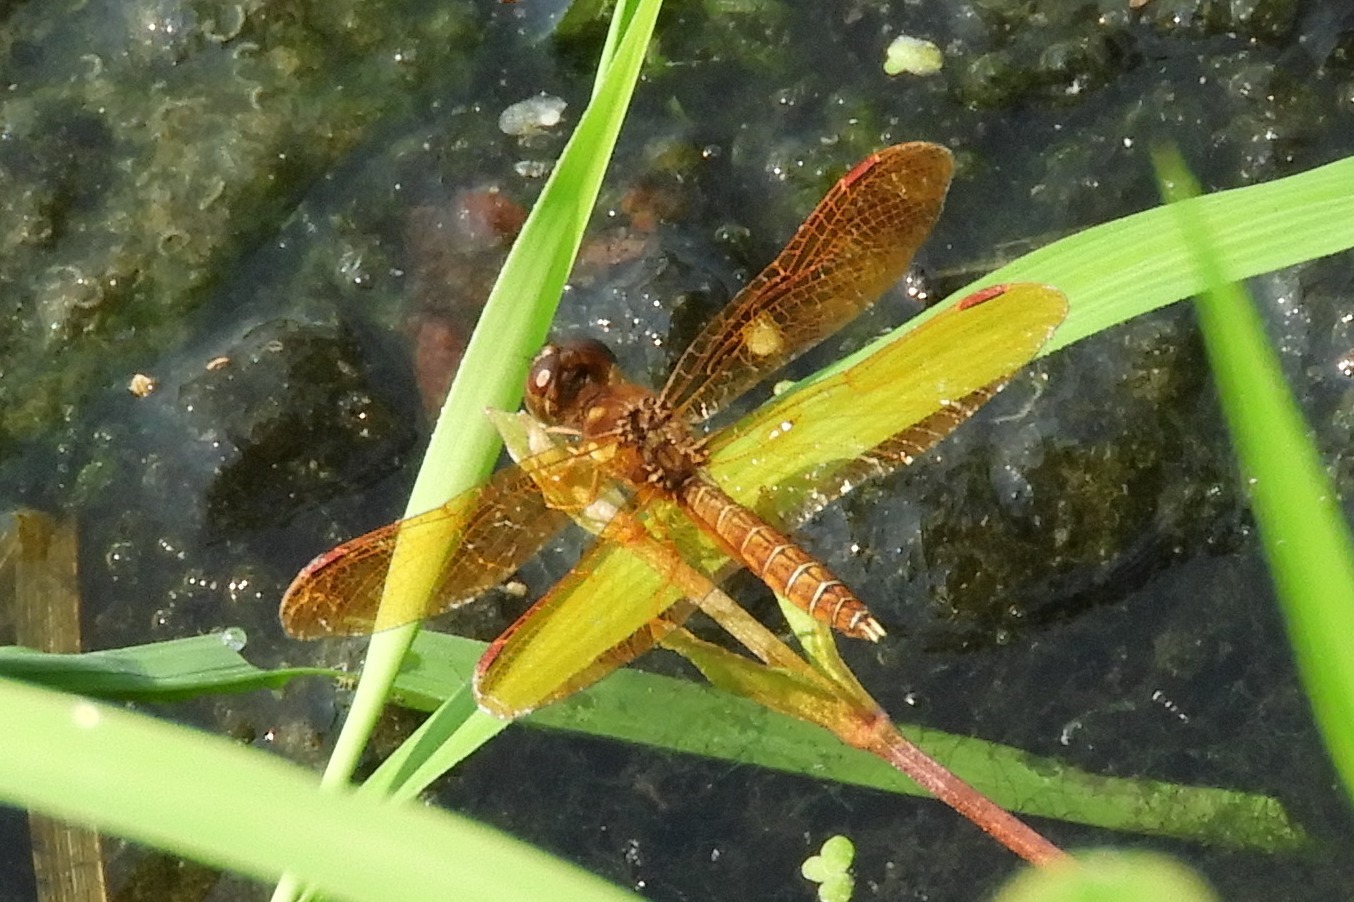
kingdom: Animalia
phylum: Arthropoda
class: Insecta
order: Odonata
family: Libellulidae
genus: Perithemis
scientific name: Perithemis tenera
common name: Eastern amberwing
